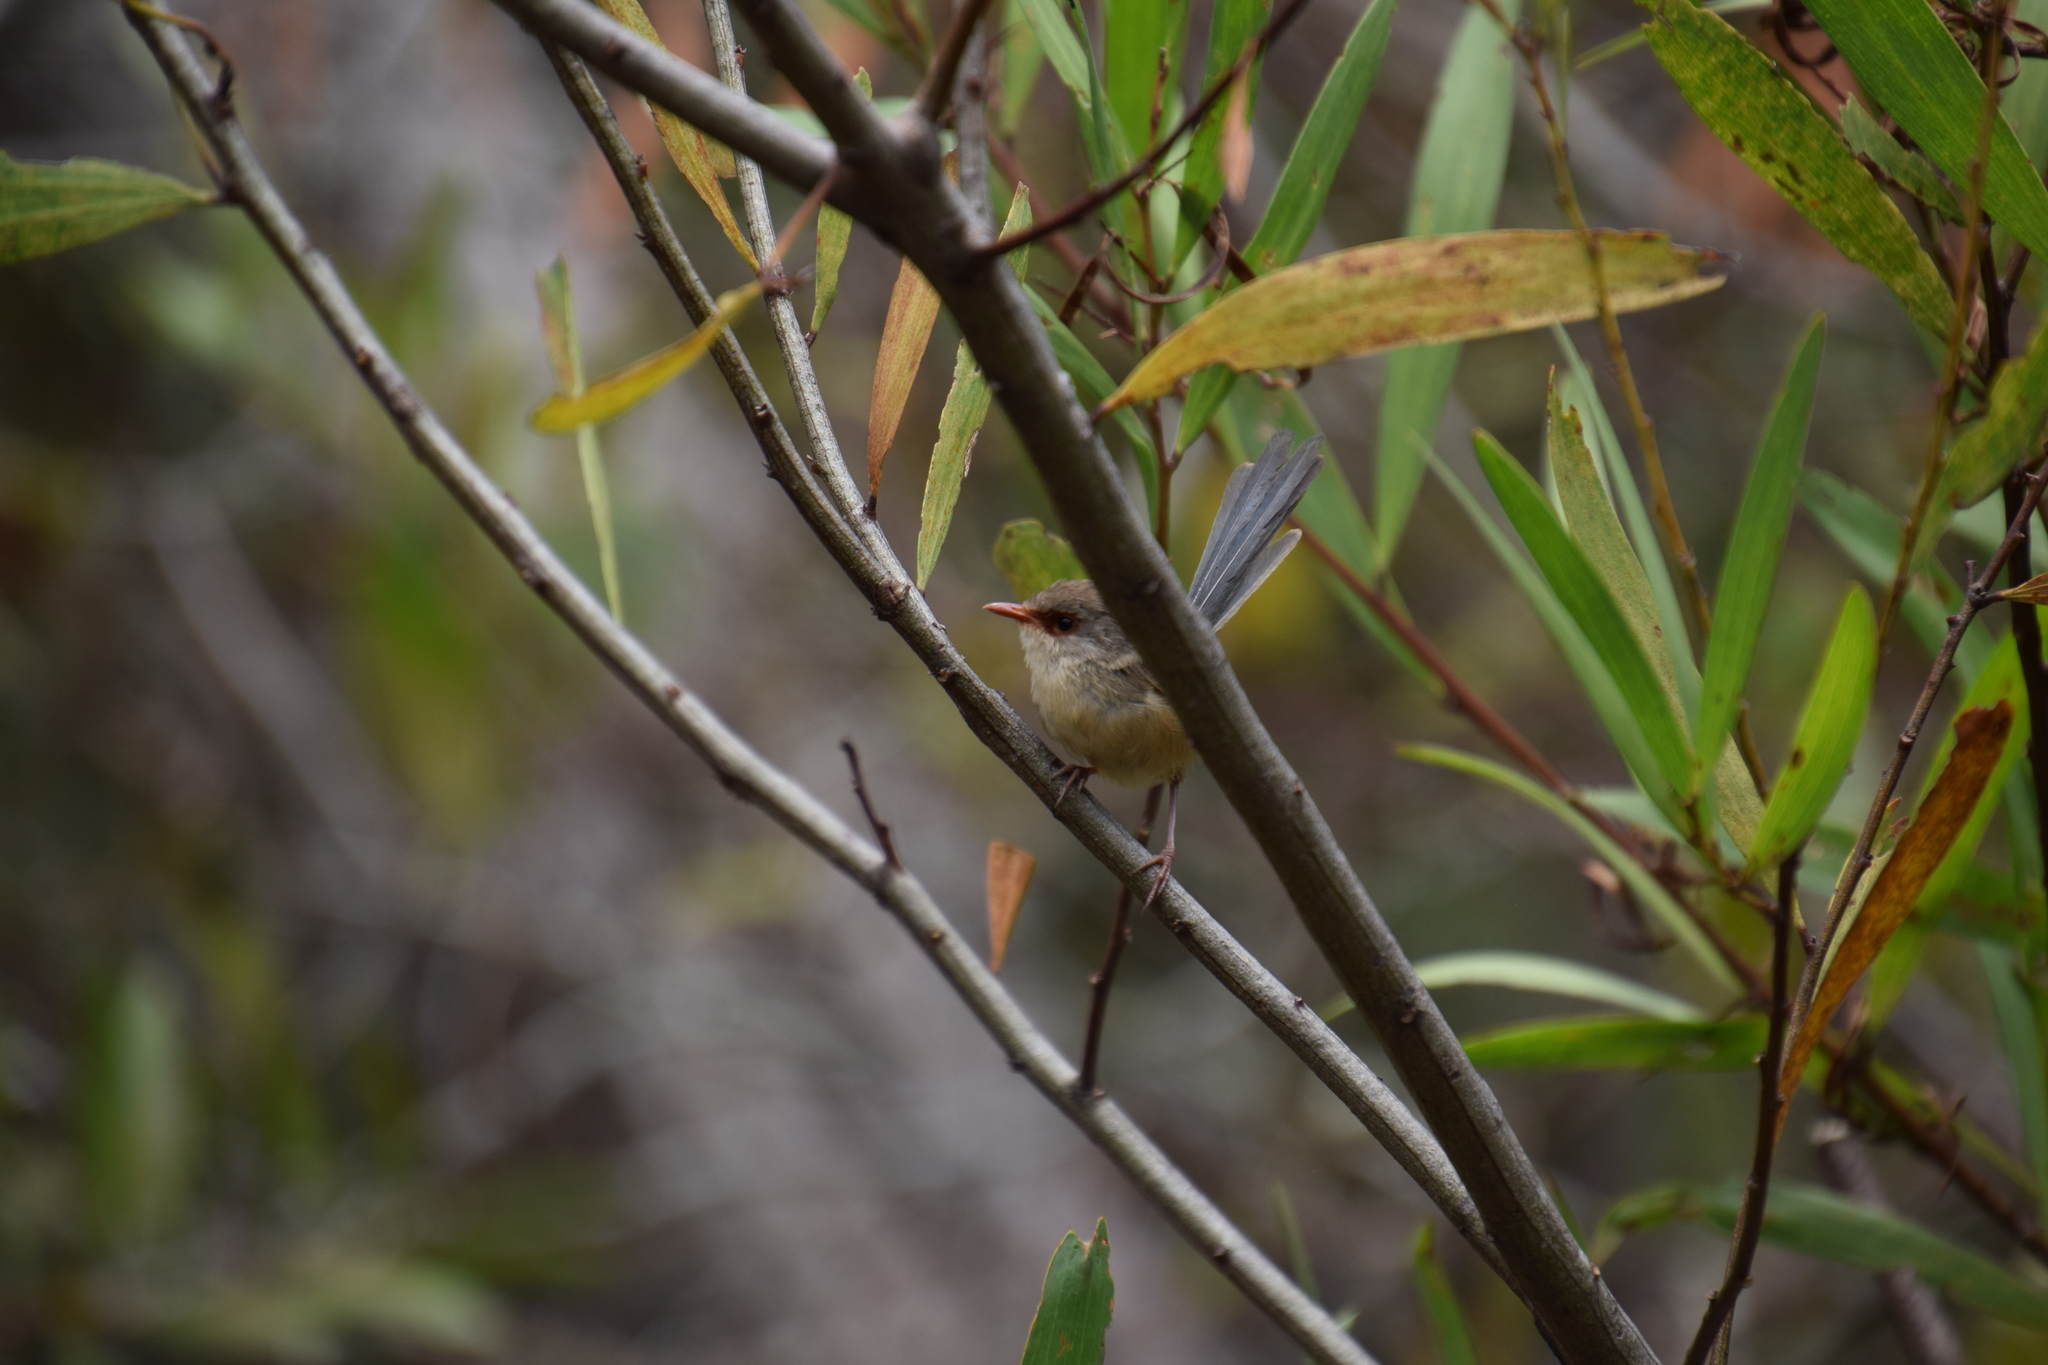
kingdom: Animalia
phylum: Chordata
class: Aves
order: Passeriformes
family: Maluridae
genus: Malurus
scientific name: Malurus lamberti
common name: Variegated fairywren
